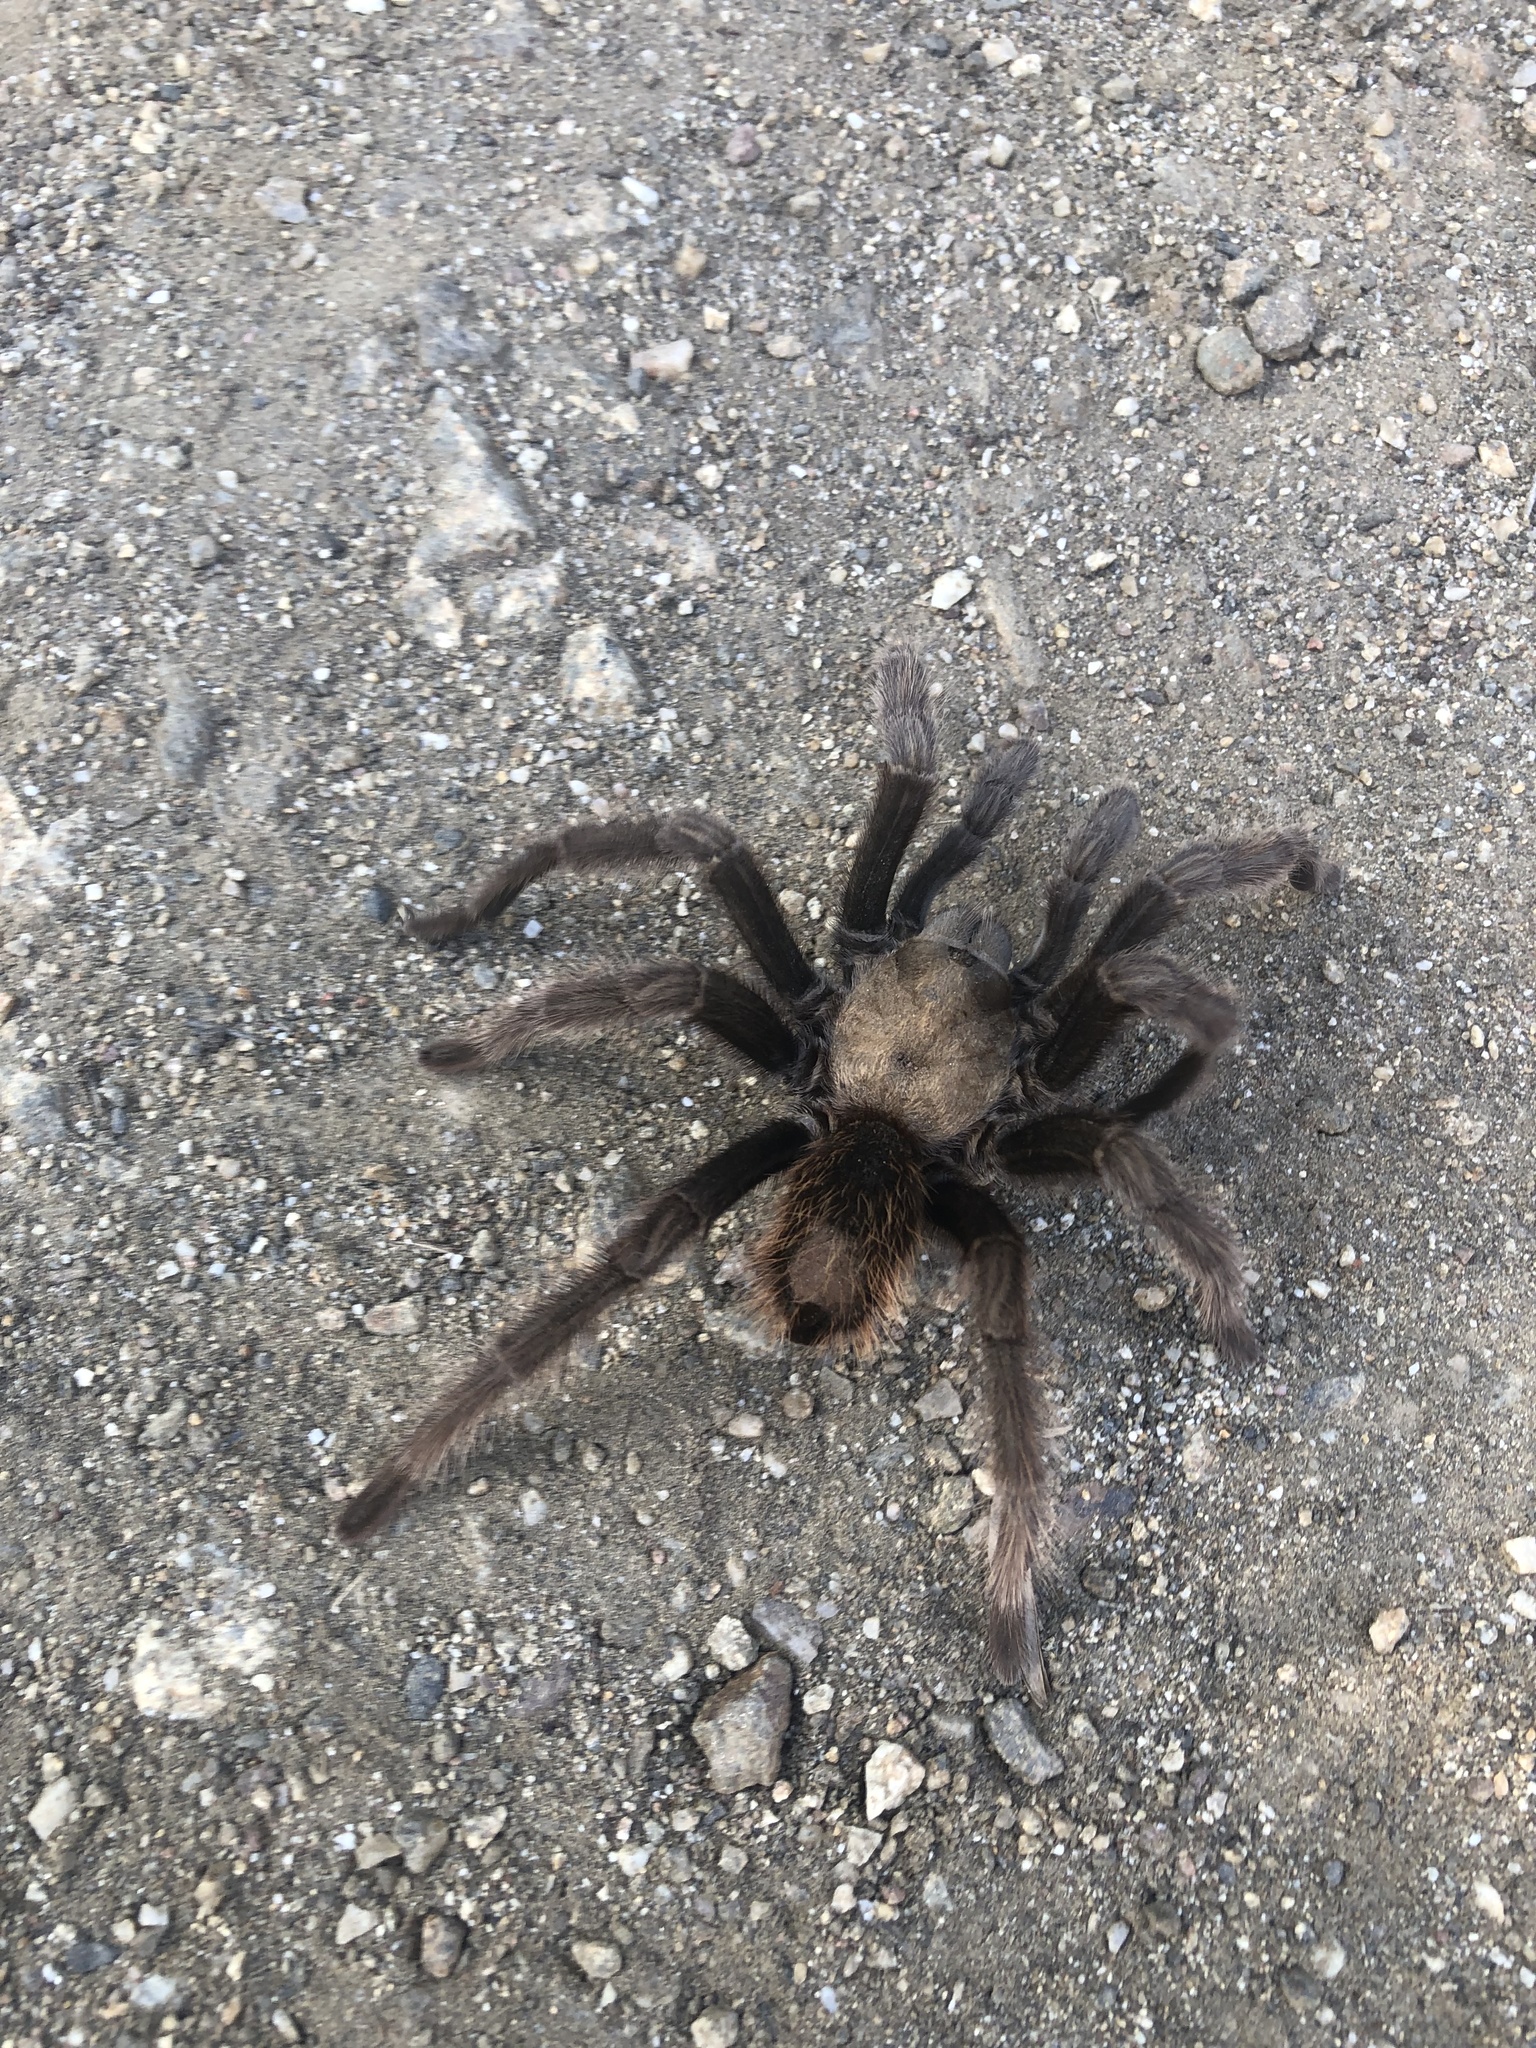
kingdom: Animalia
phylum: Arthropoda
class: Arachnida
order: Araneae
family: Theraphosidae
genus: Aphonopelma
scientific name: Aphonopelma eutylenum
